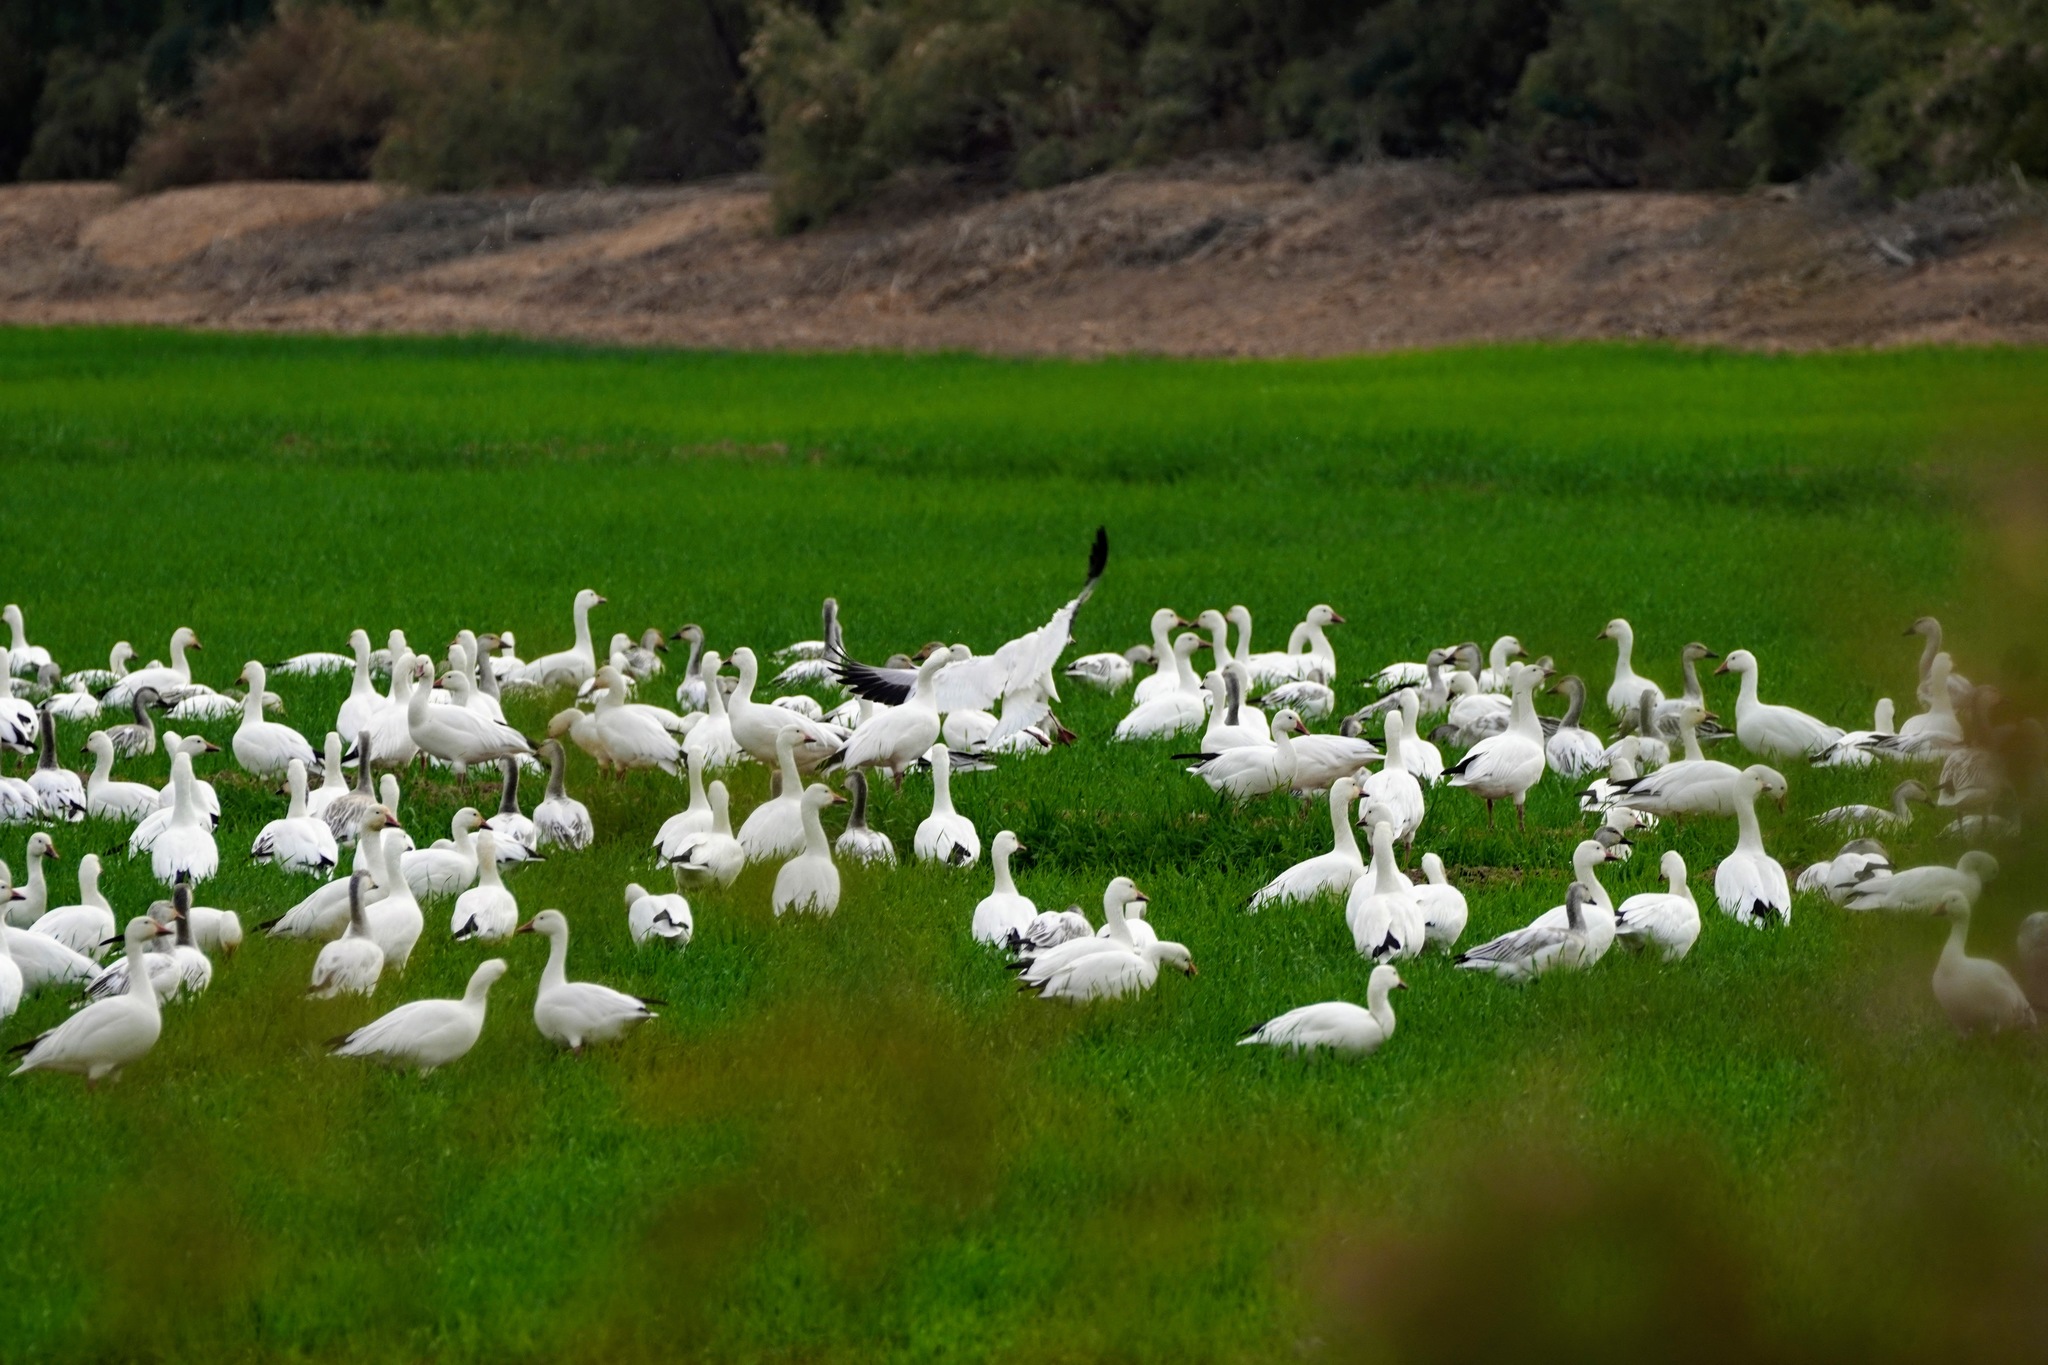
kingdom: Animalia
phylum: Chordata
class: Aves
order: Anseriformes
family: Anatidae
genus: Anser
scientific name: Anser caerulescens
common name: Snow goose
